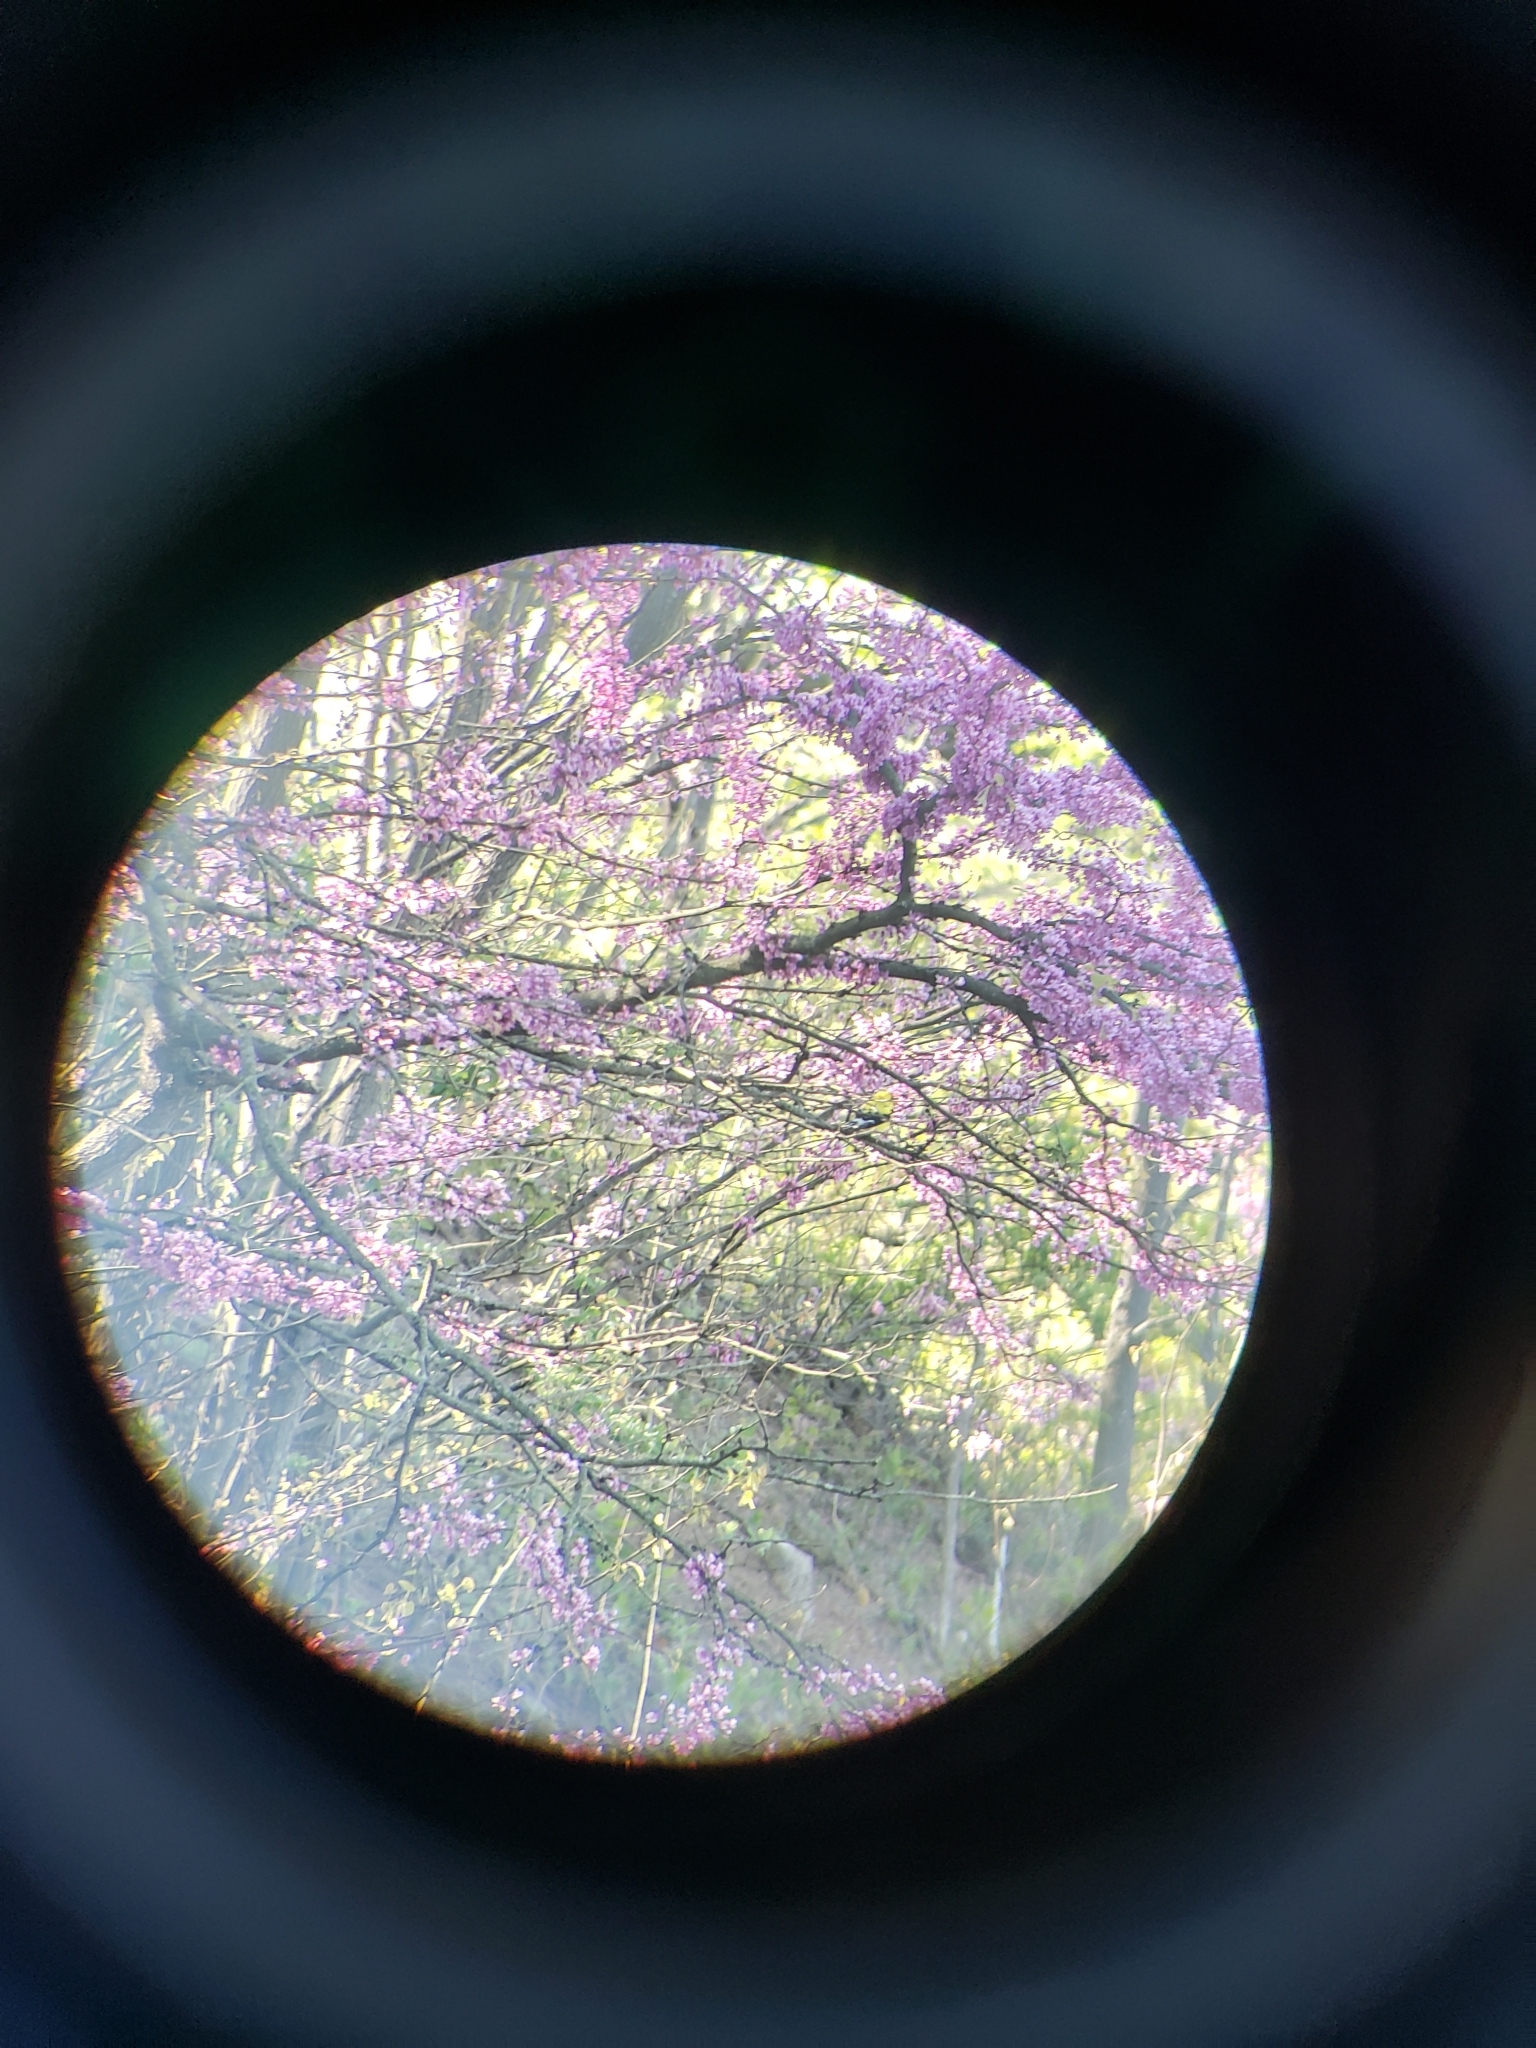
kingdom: Animalia
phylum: Chordata
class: Aves
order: Passeriformes
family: Fringillidae
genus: Spinus
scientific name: Spinus tristis
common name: American goldfinch
